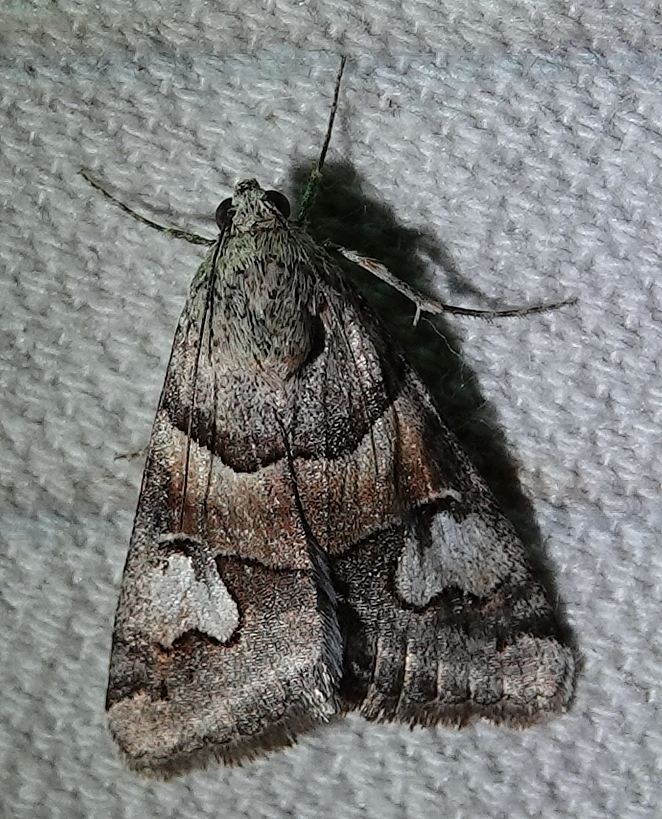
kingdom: Animalia
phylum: Arthropoda
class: Insecta
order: Lepidoptera
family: Erebidae
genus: Drasteria
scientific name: Drasteria pallescens
